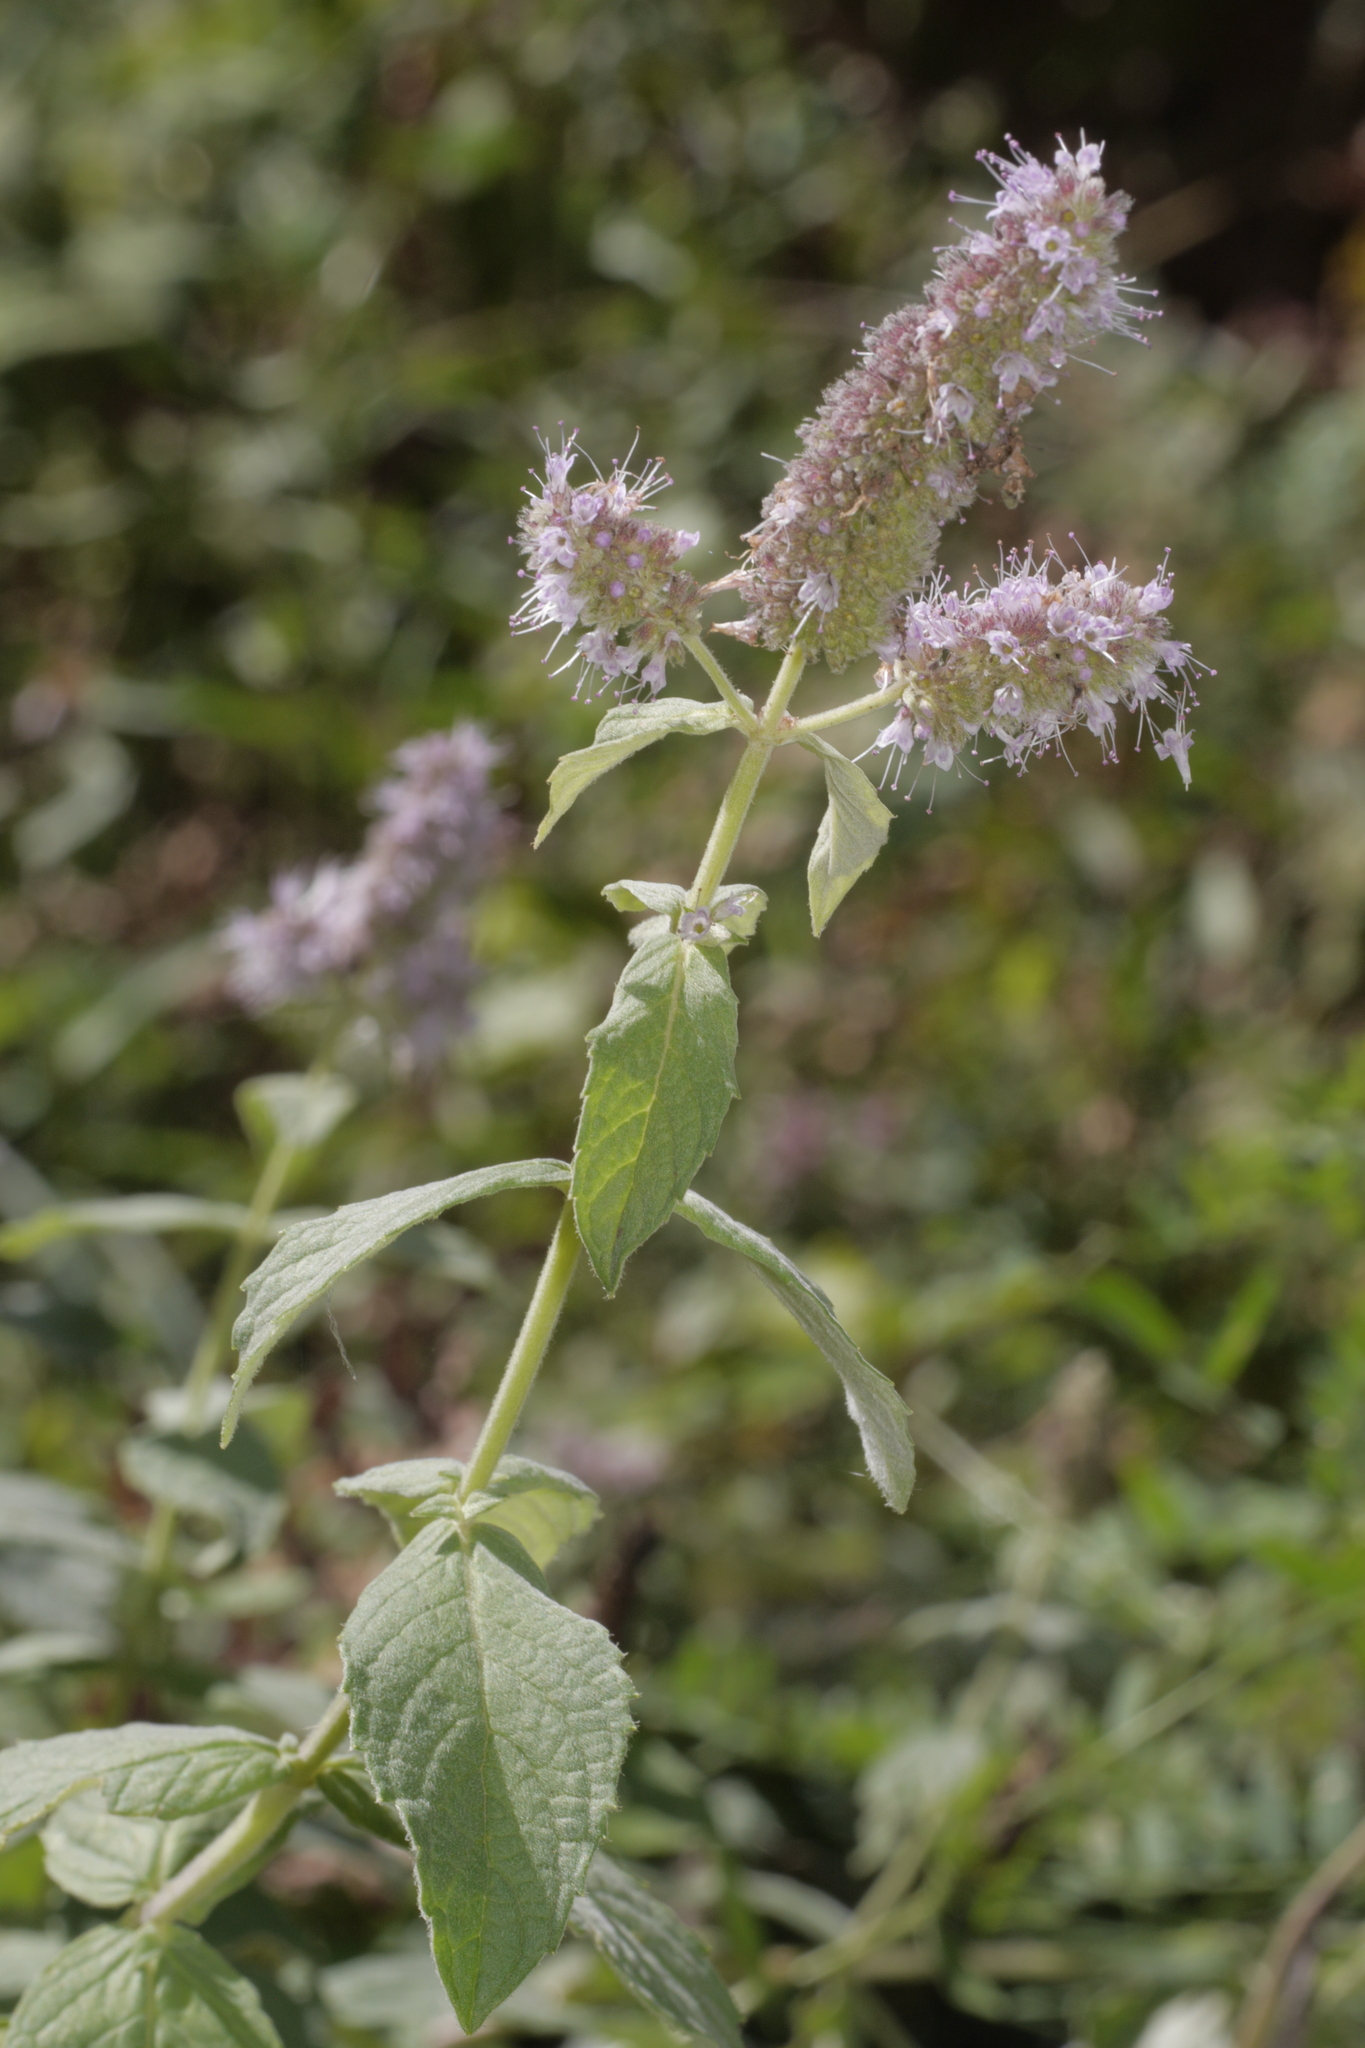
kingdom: Plantae
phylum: Tracheophyta
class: Magnoliopsida
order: Lamiales
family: Lamiaceae
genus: Mentha
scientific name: Mentha longifolia
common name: Horse mint
